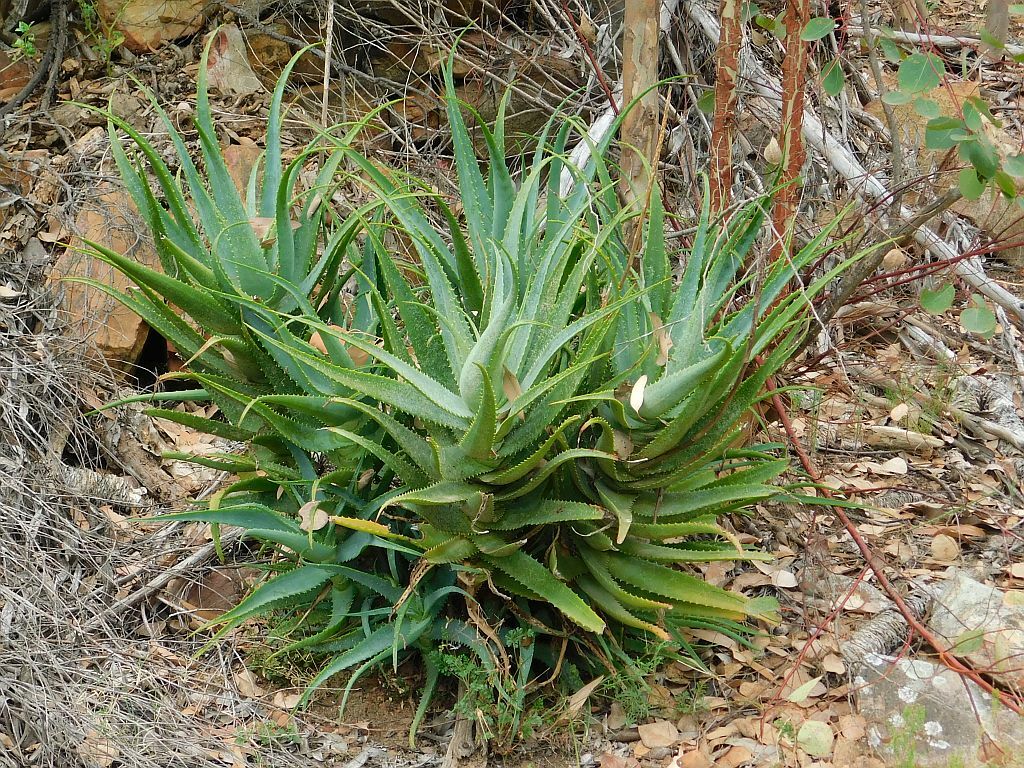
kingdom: Plantae
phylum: Tracheophyta
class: Liliopsida
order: Asparagales
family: Asphodelaceae
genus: Aloe
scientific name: Aloe arborescens
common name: Candelabra aloe
